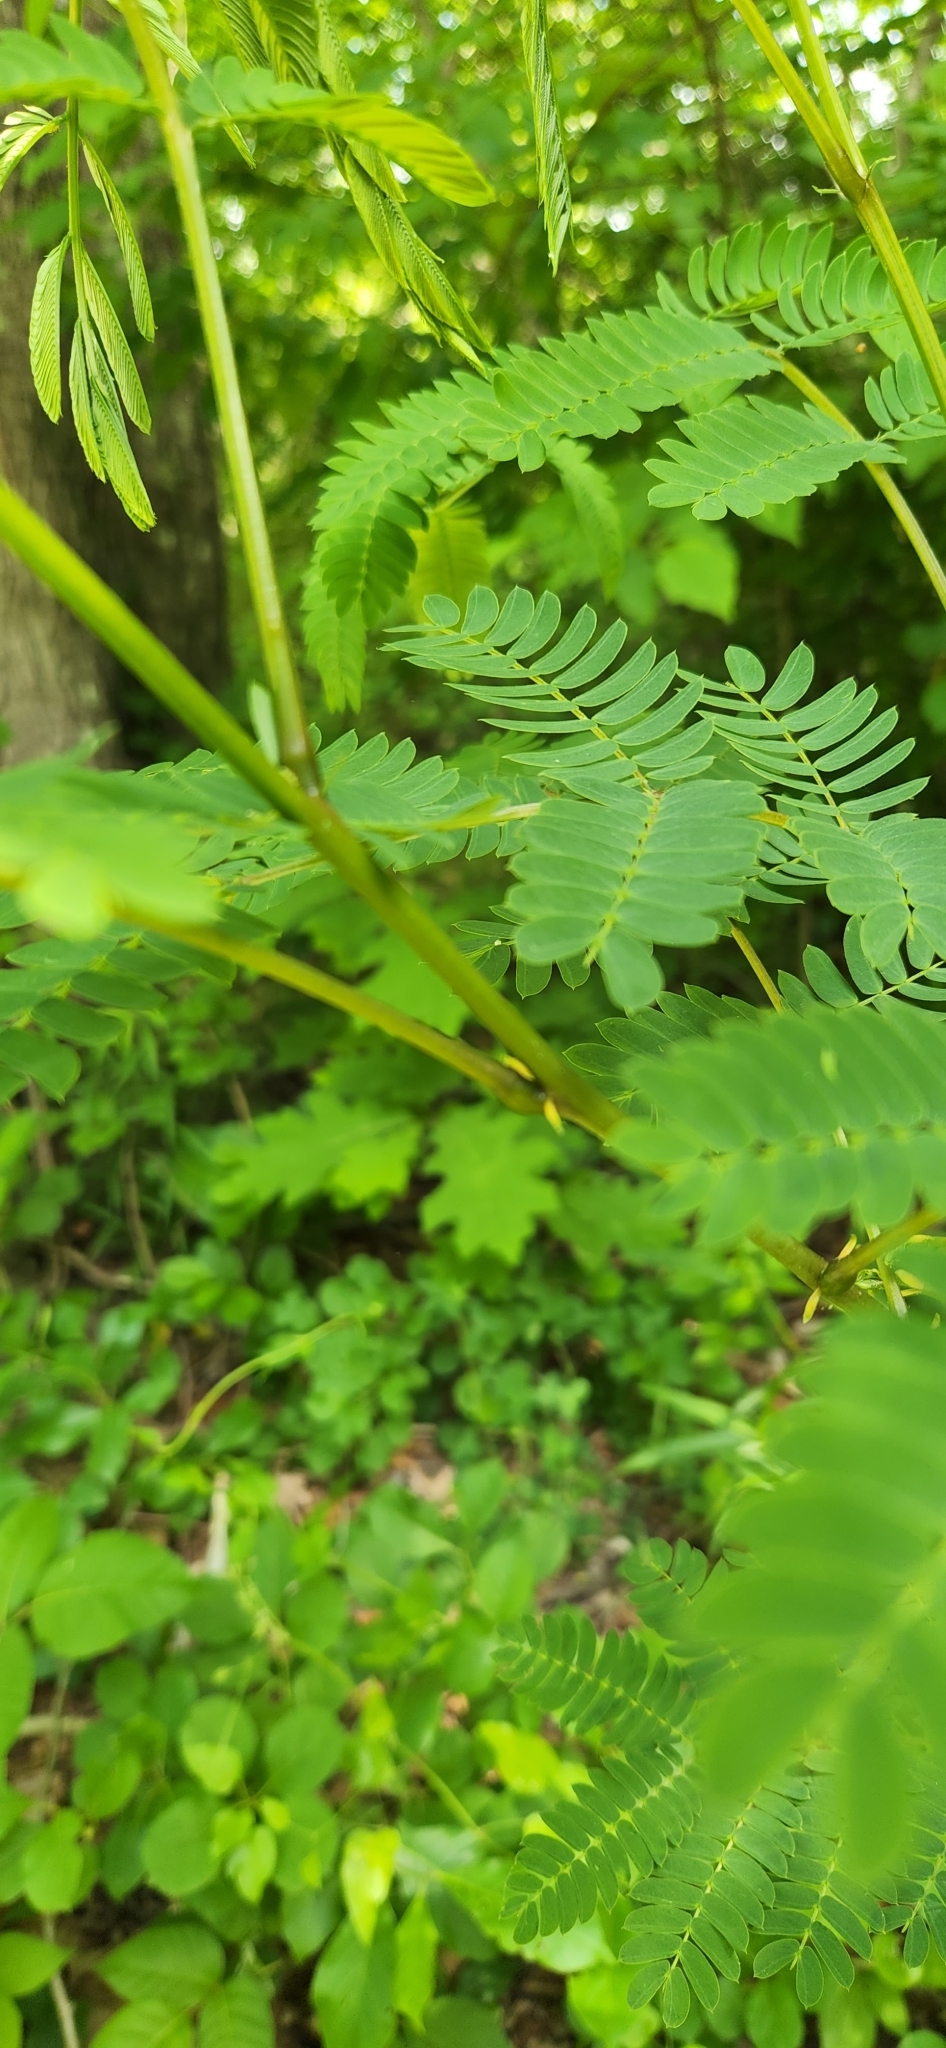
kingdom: Plantae
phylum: Tracheophyta
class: Magnoliopsida
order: Fabales
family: Fabaceae
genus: Albizia
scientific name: Albizia julibrissin
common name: Silktree
